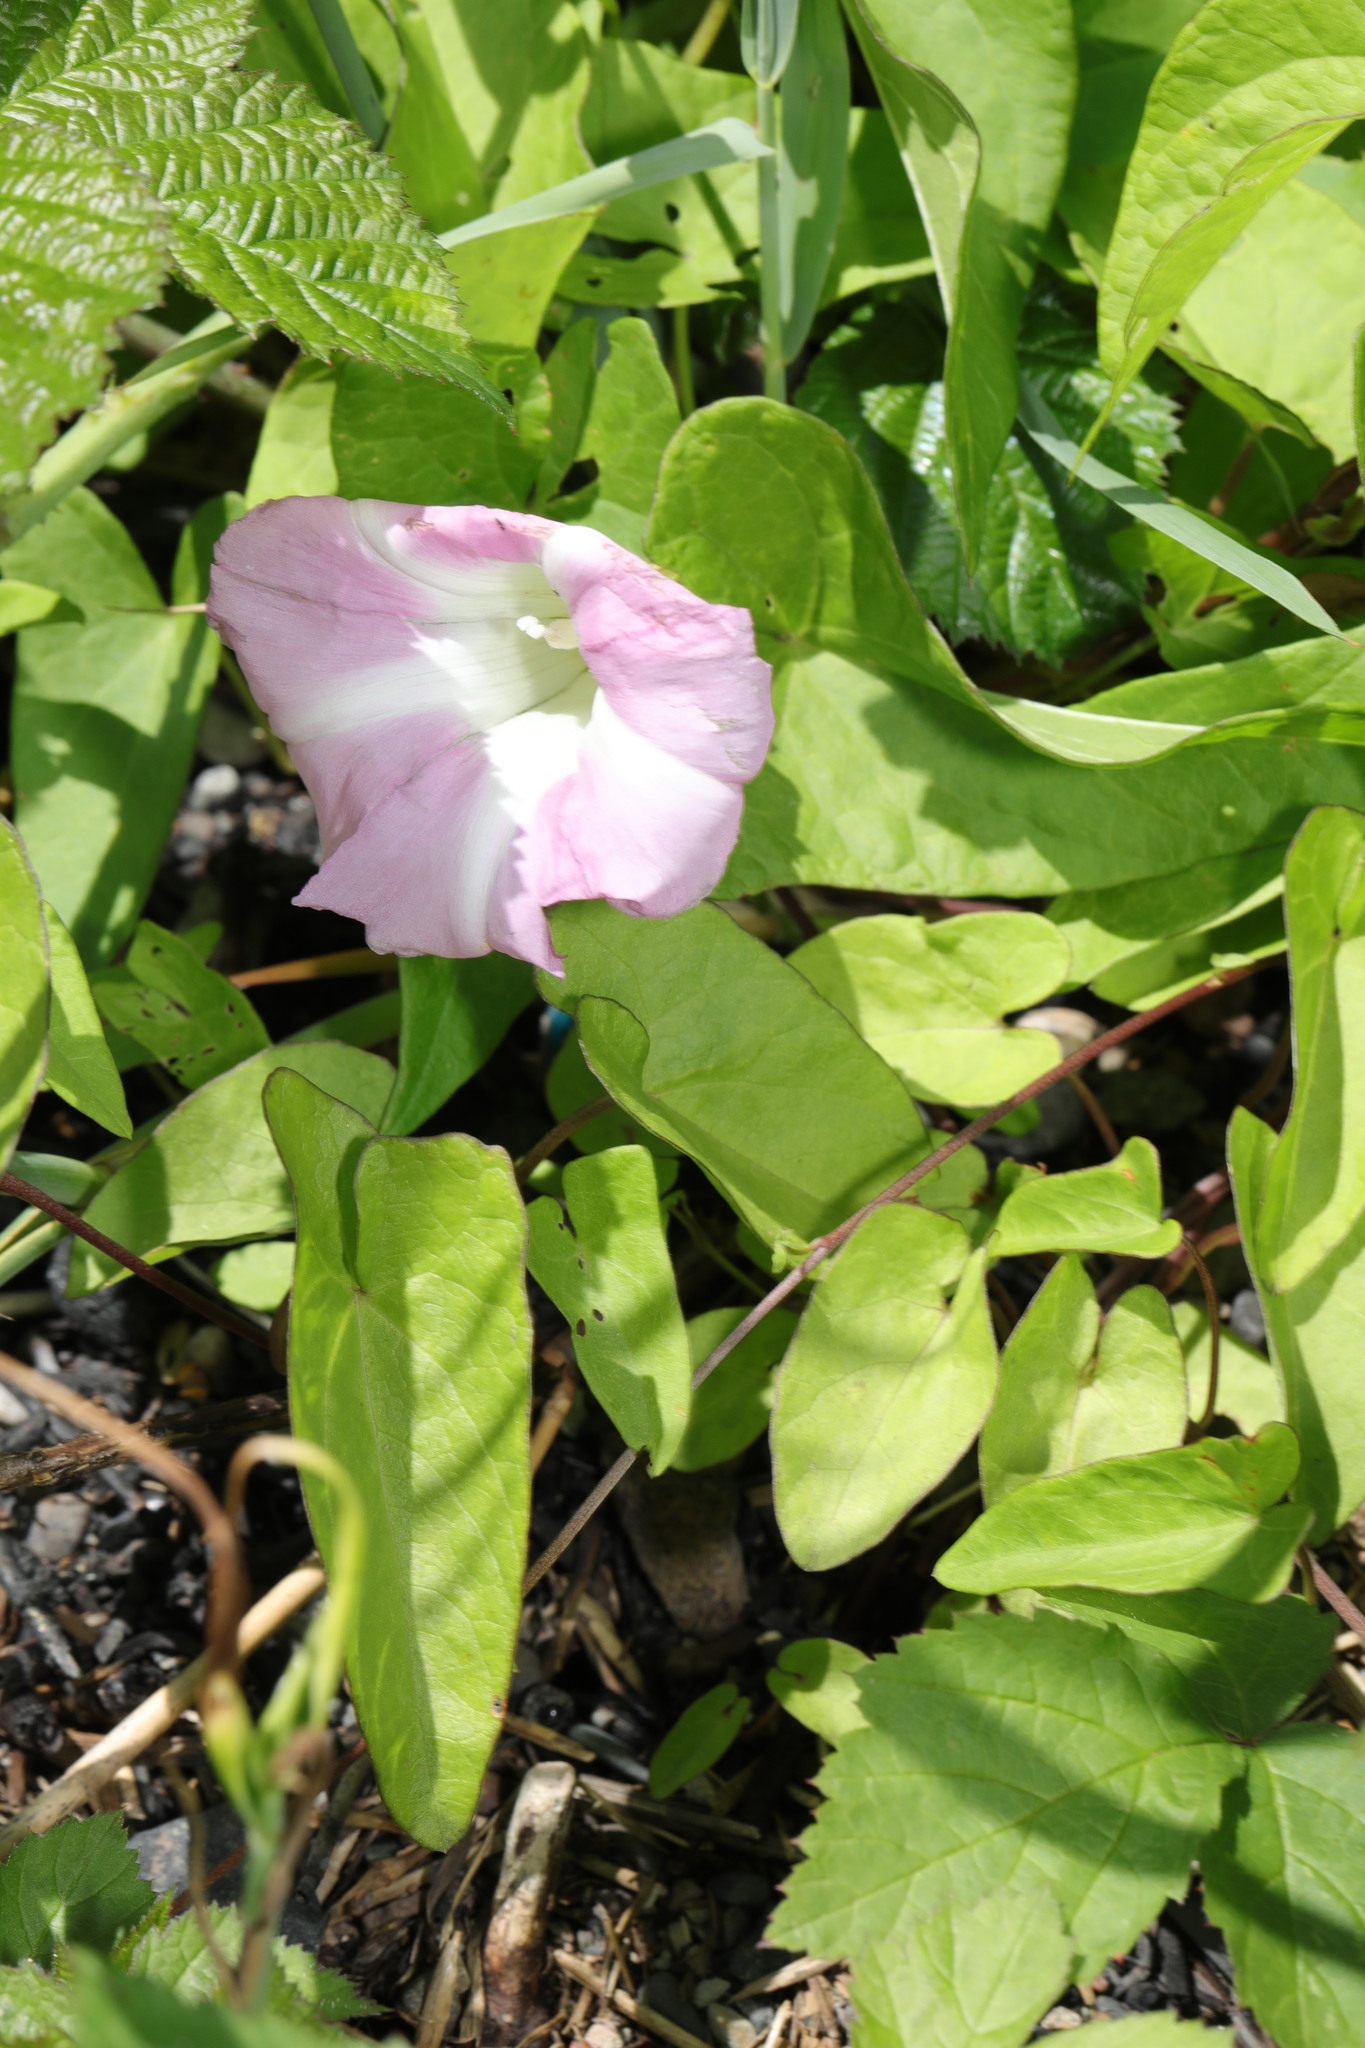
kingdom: Plantae
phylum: Tracheophyta
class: Magnoliopsida
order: Solanales
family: Convolvulaceae
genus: Calystegia
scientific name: Calystegia sepium
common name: Hedge bindweed
